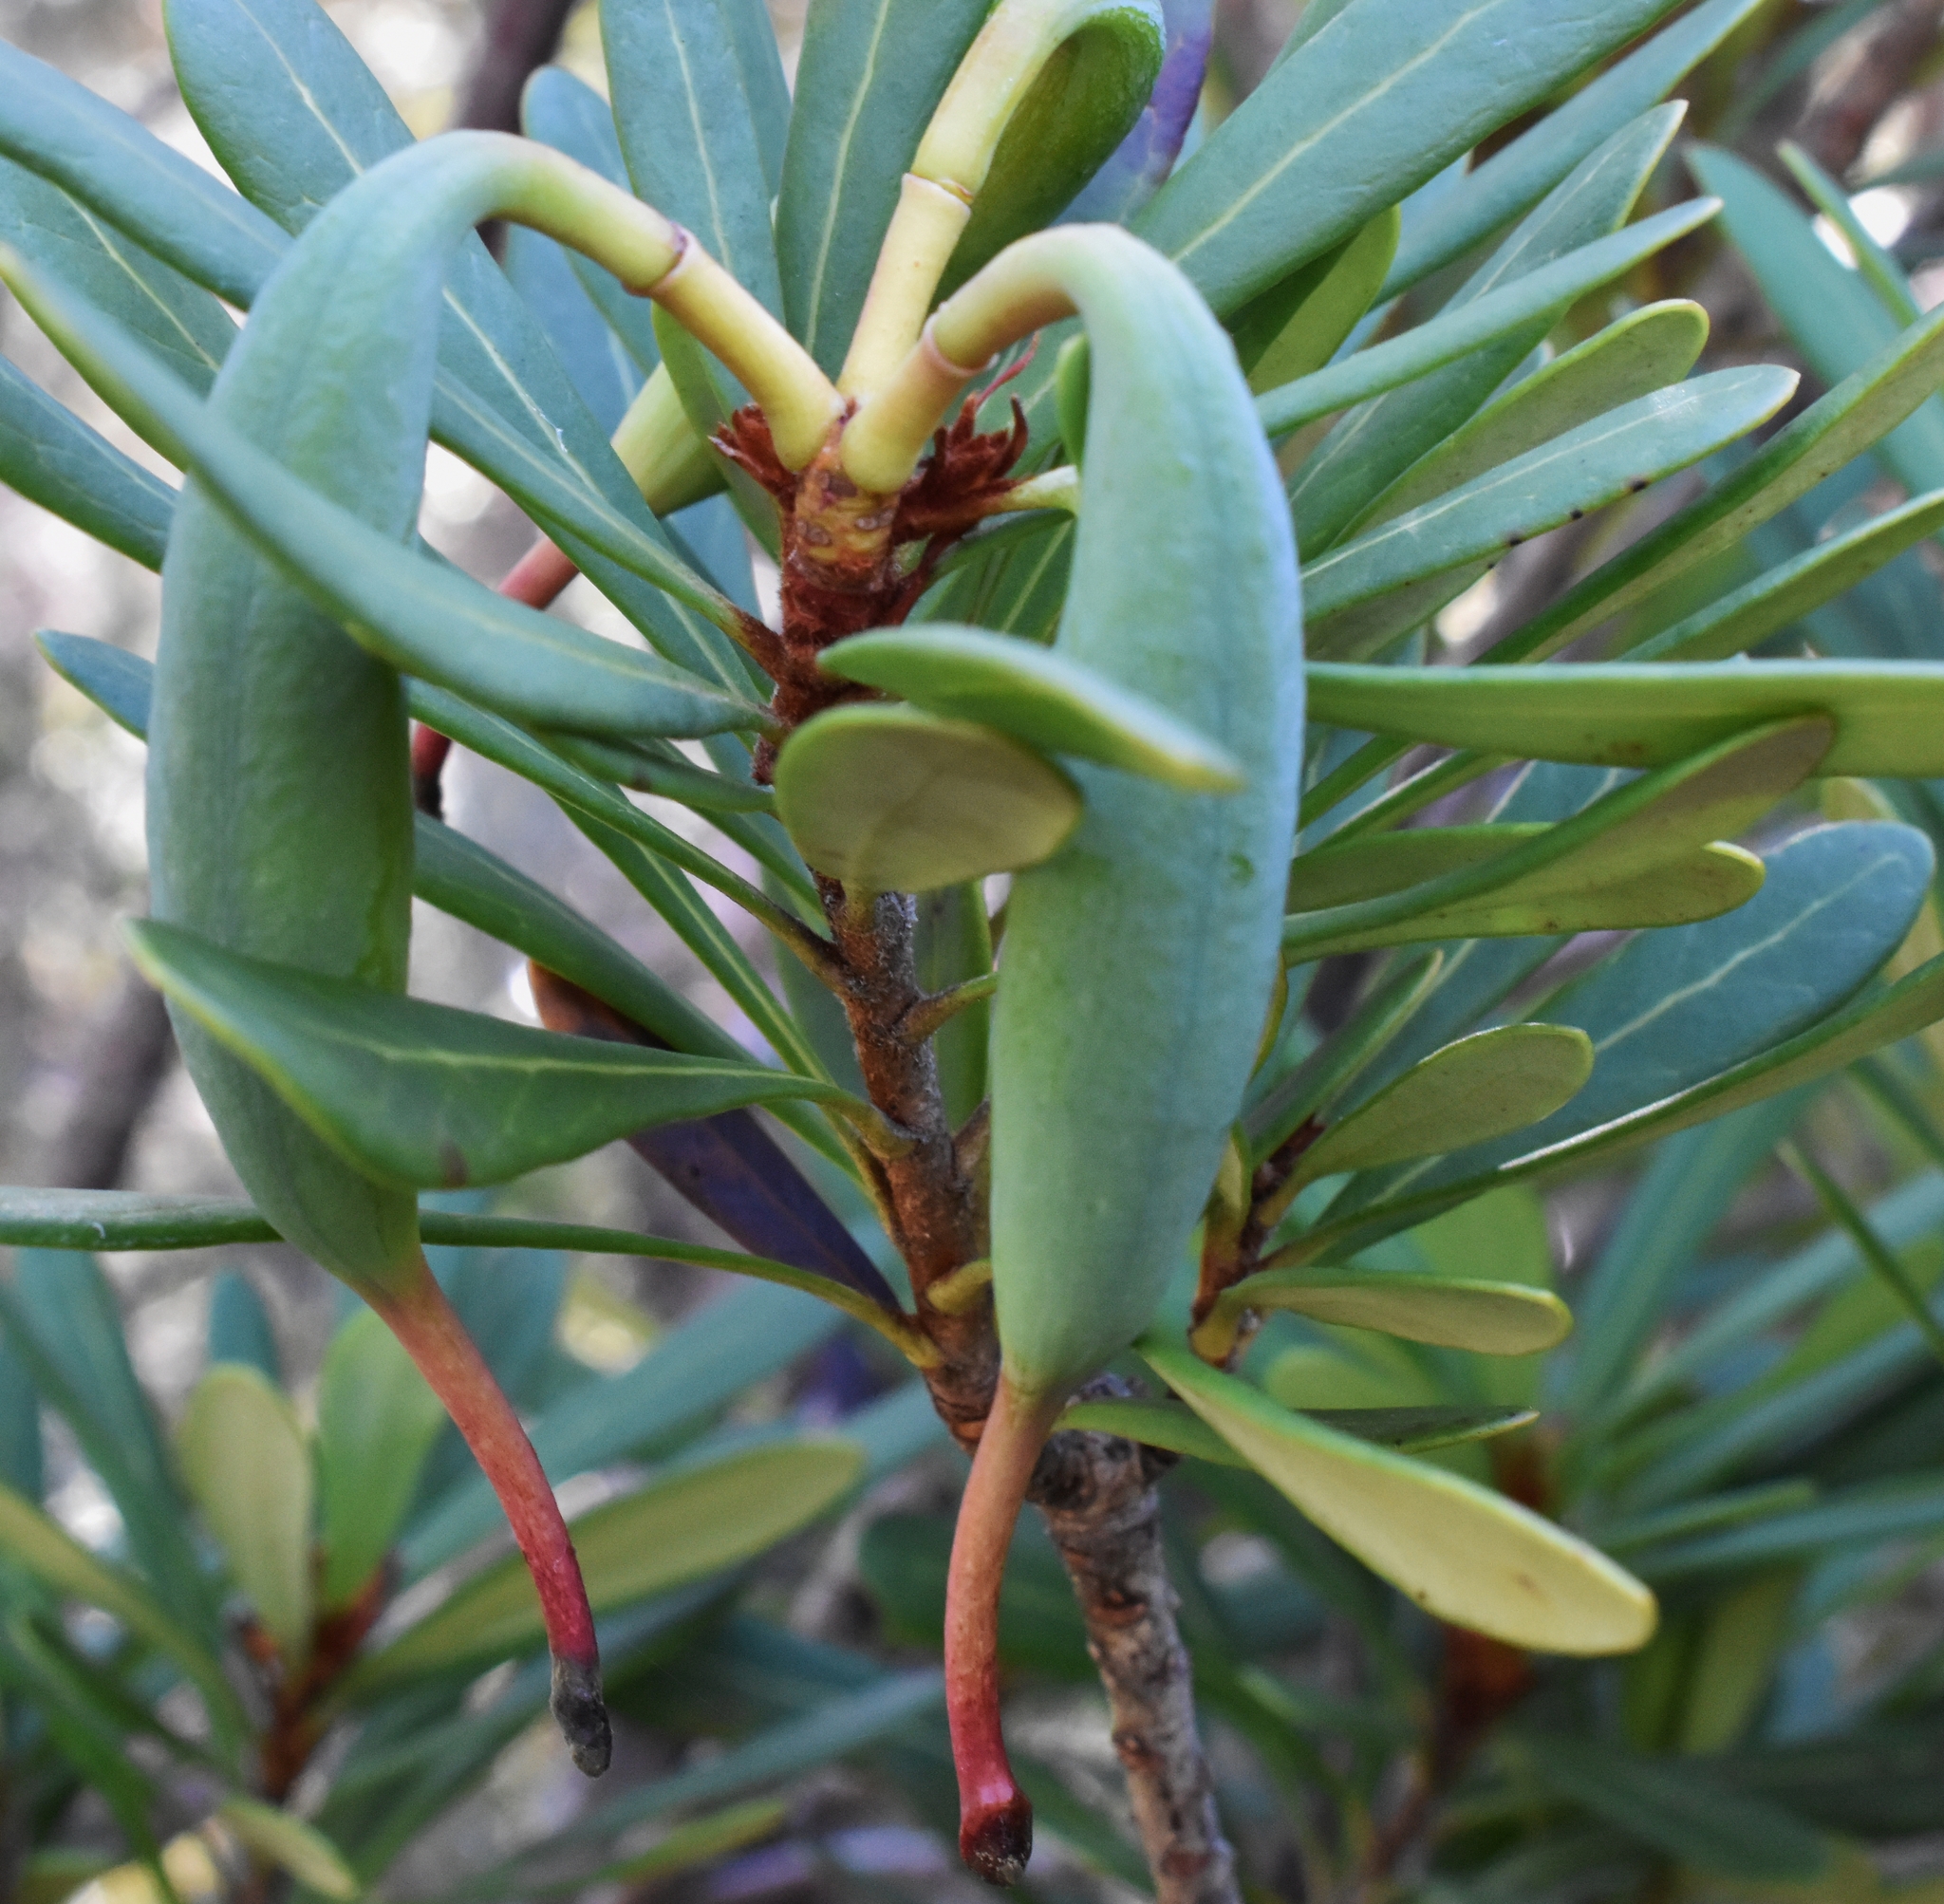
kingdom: Plantae
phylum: Tracheophyta
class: Magnoliopsida
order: Proteales
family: Proteaceae
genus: Telopea
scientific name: Telopea truncata
